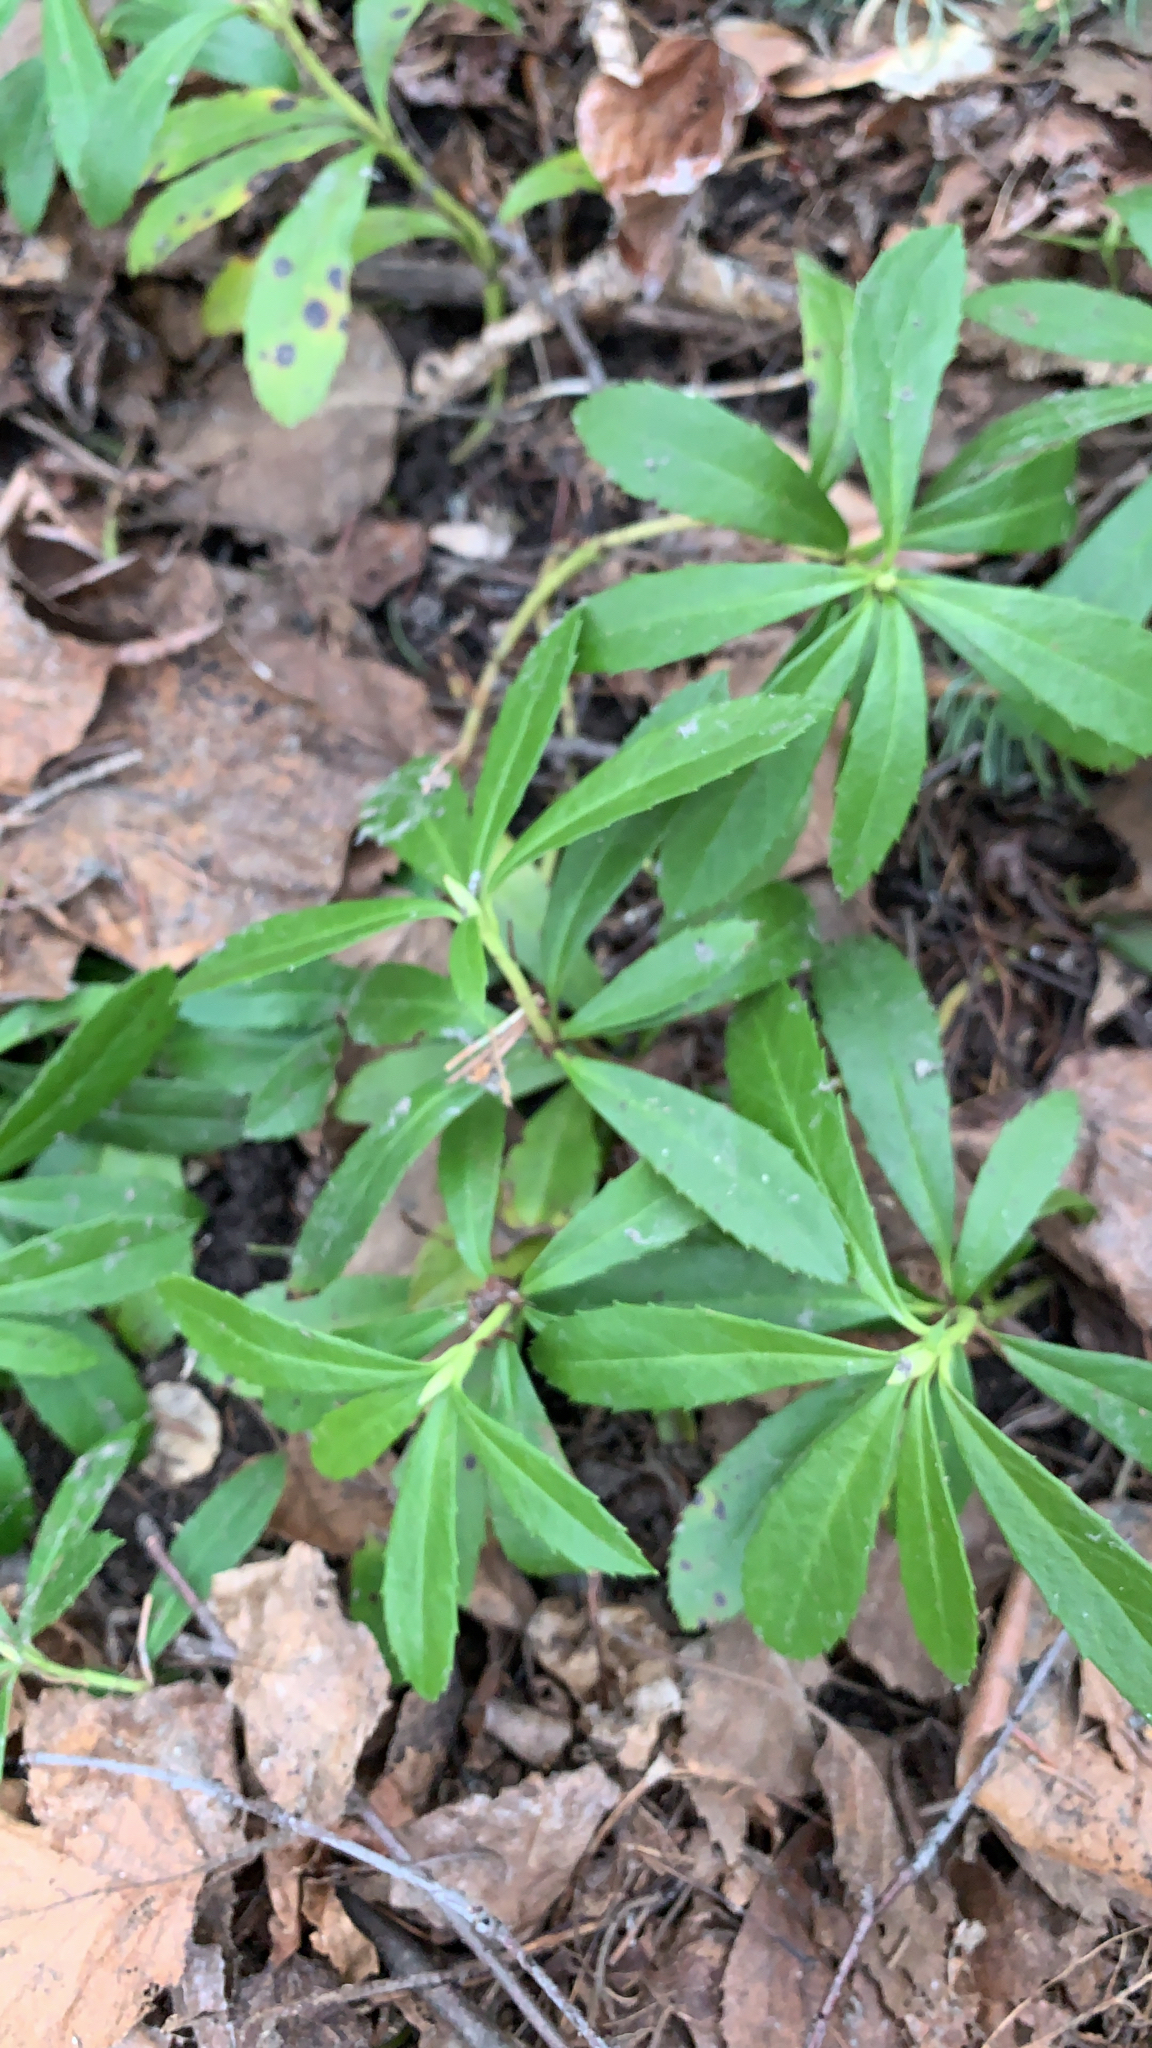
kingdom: Plantae
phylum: Tracheophyta
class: Magnoliopsida
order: Ericales
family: Ericaceae
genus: Chimaphila
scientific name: Chimaphila umbellata
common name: Pipsissewa
